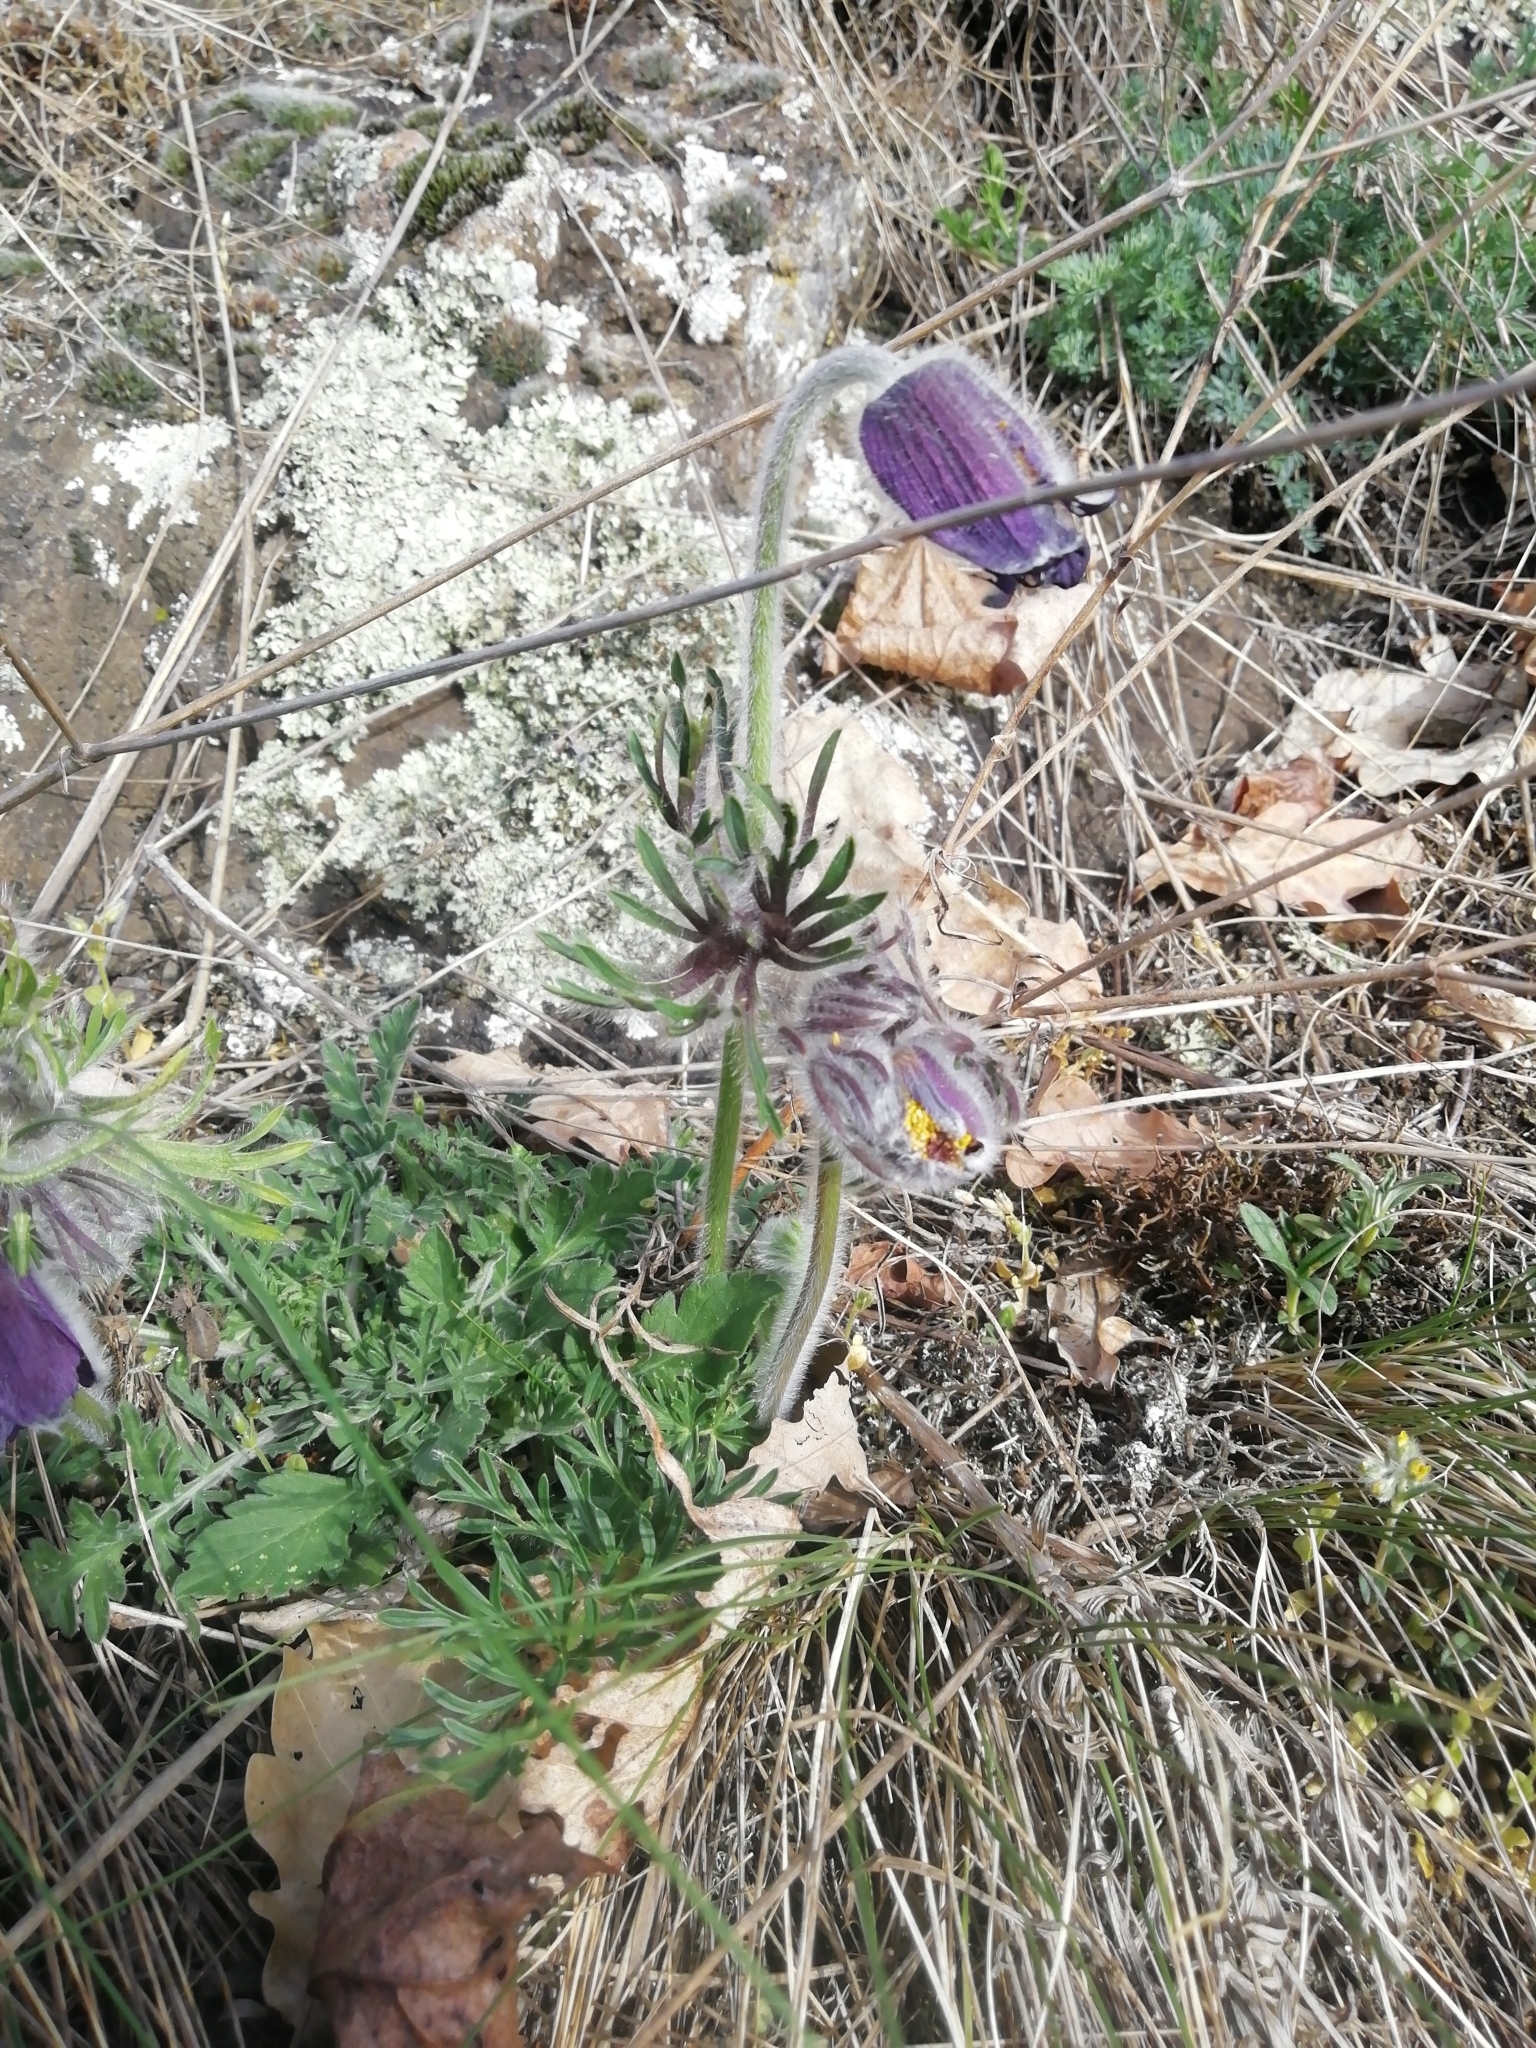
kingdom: Plantae
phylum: Tracheophyta
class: Magnoliopsida
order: Ranunculales
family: Ranunculaceae
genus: Pulsatilla
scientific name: Pulsatilla pratensis
